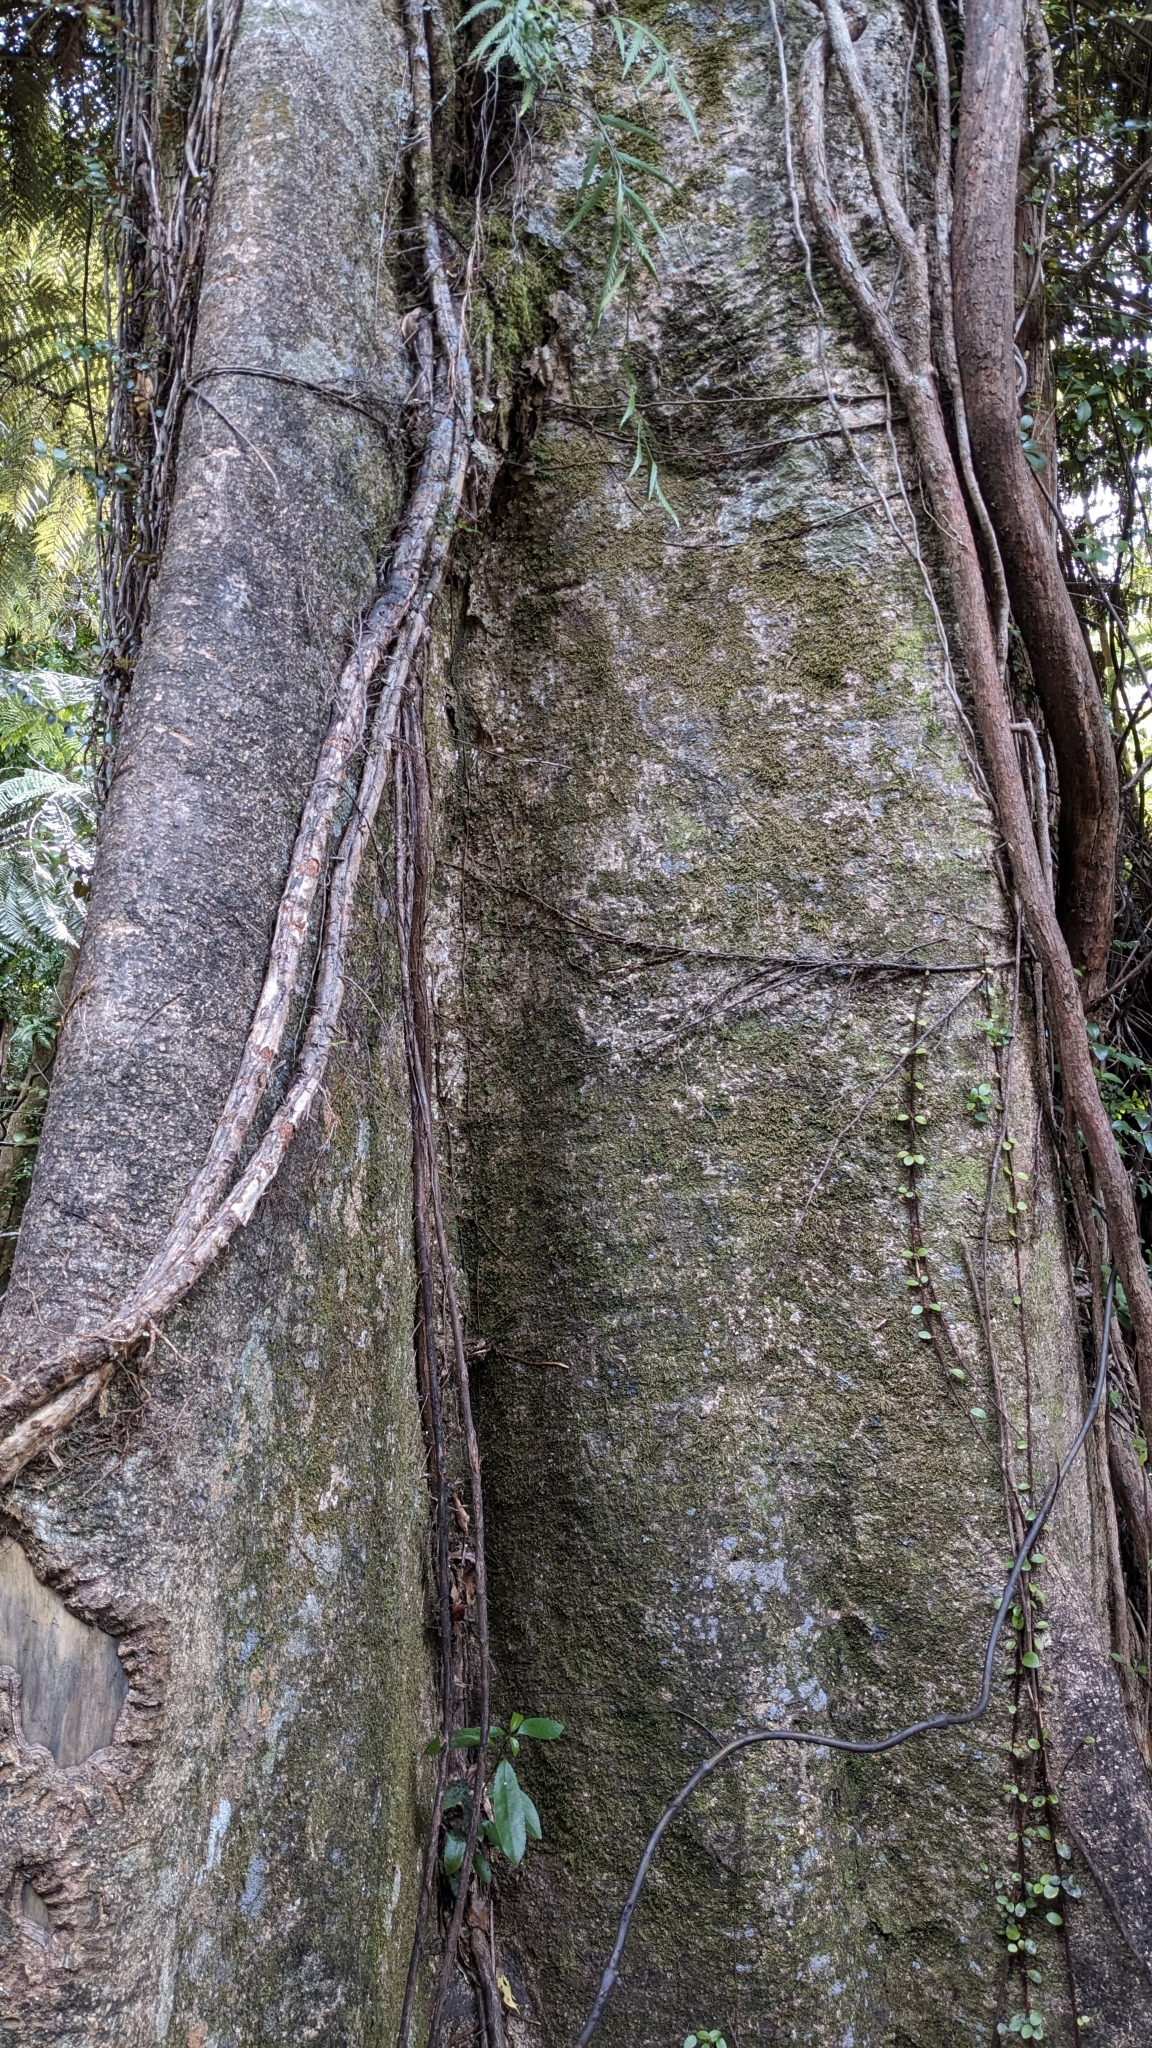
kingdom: Plantae
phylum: Tracheophyta
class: Magnoliopsida
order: Laurales
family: Atherospermataceae
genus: Laurelia
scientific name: Laurelia novae-zelandiae
